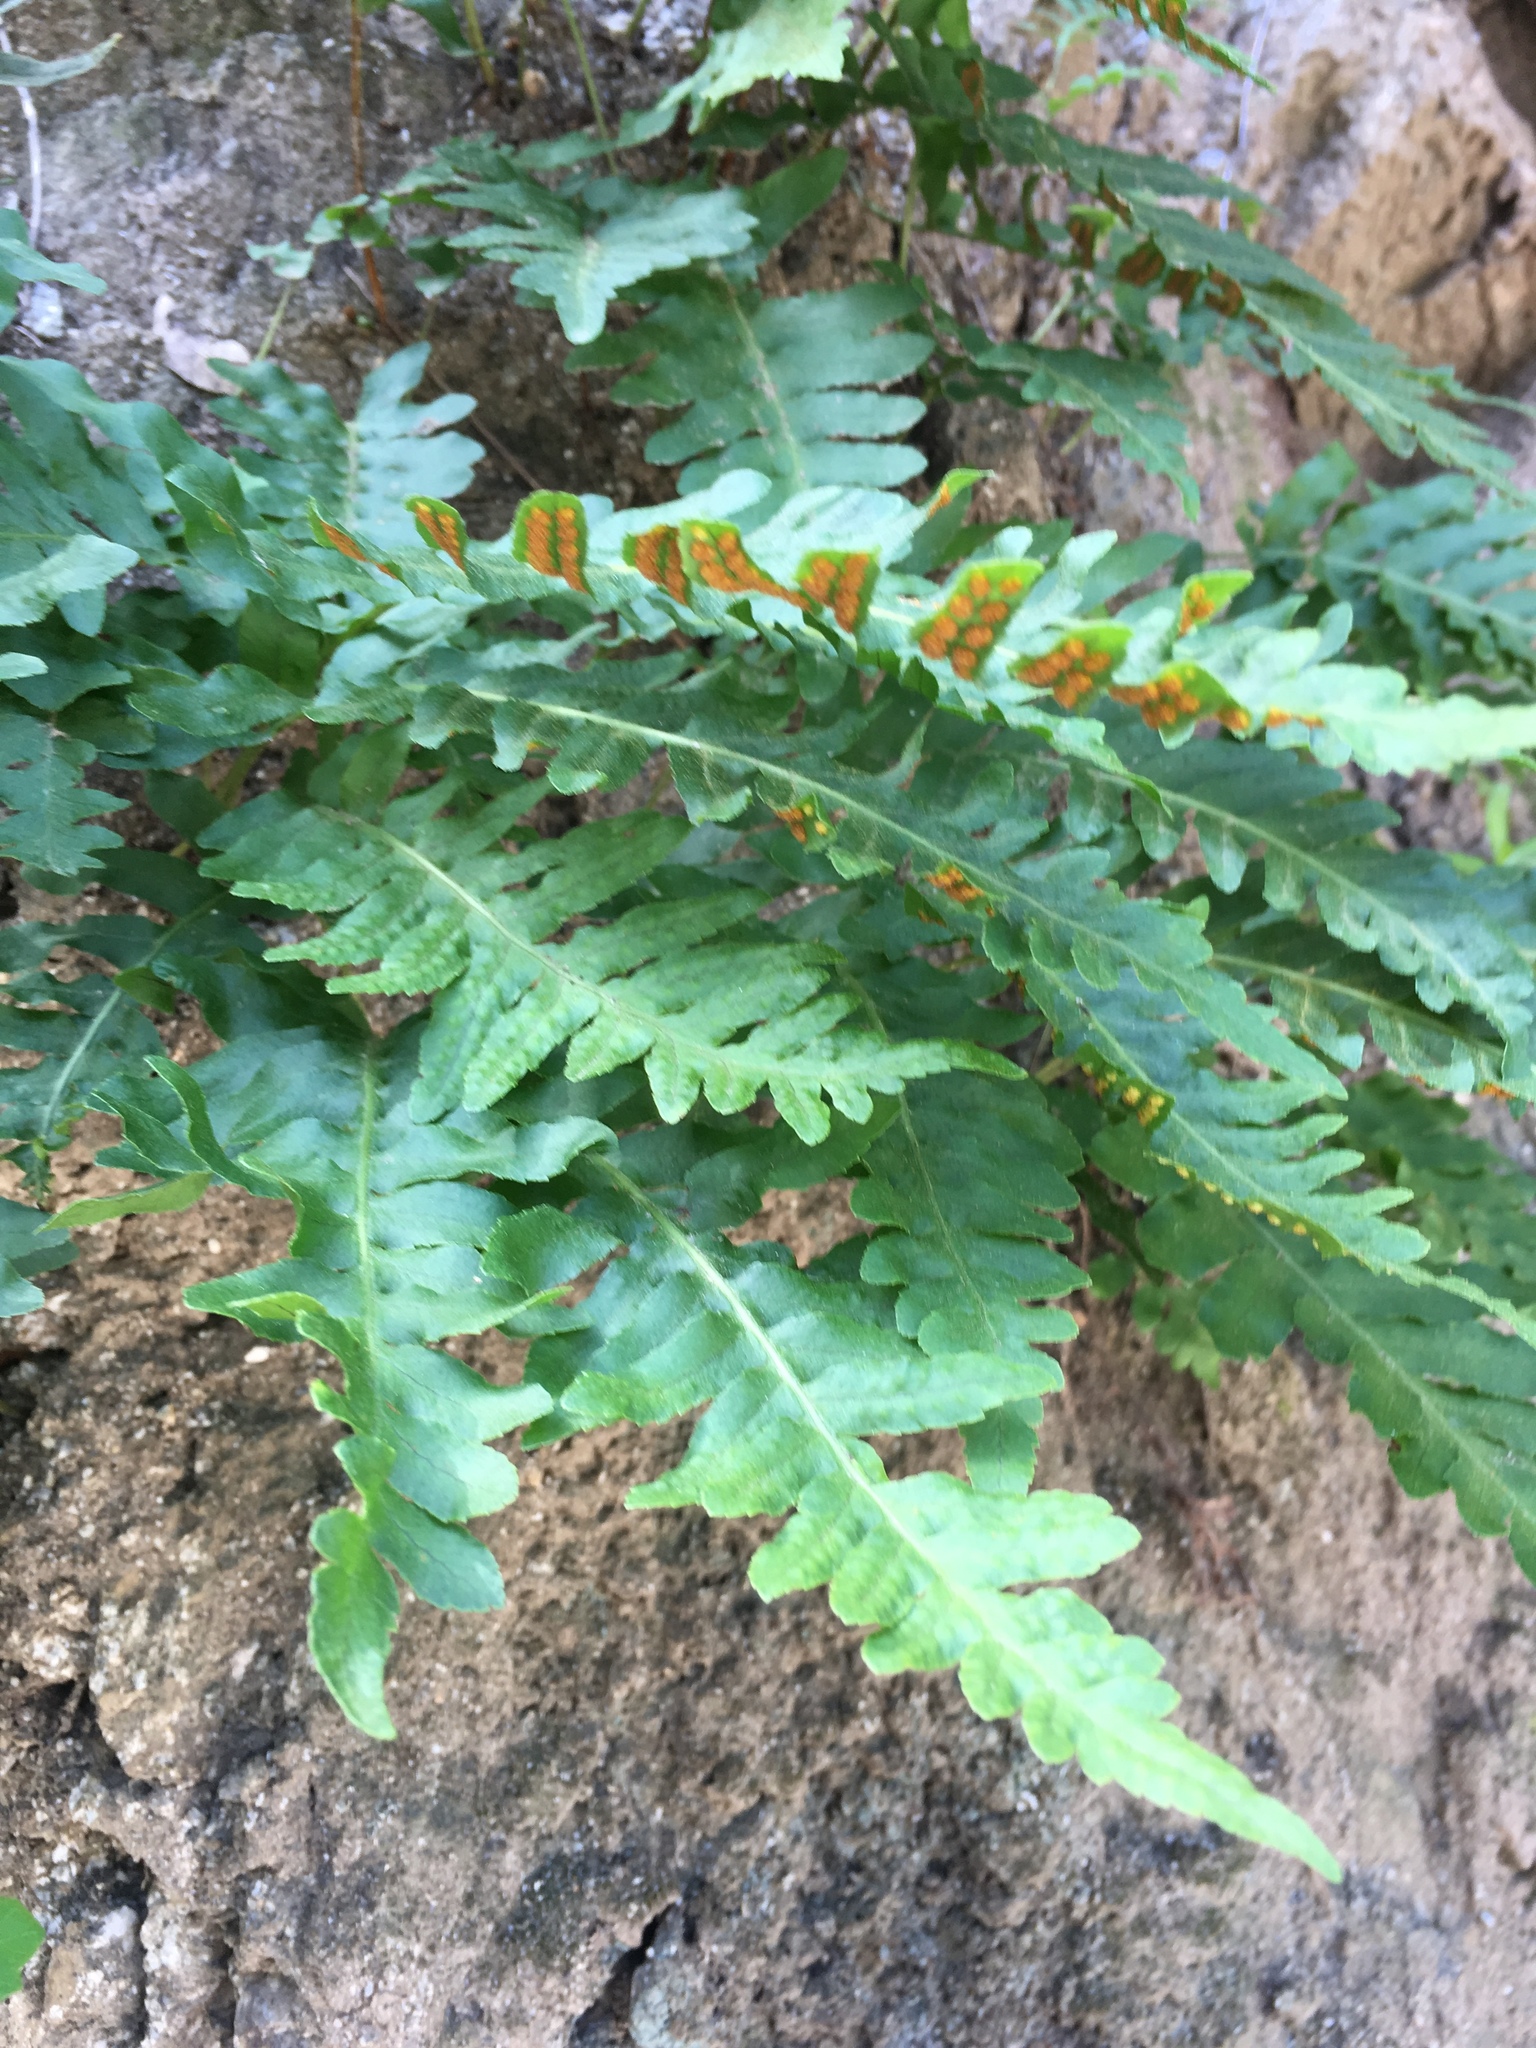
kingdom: Plantae
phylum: Tracheophyta
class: Polypodiopsida
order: Polypodiales
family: Polypodiaceae
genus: Polypodium
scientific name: Polypodium californicum
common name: California polypody
